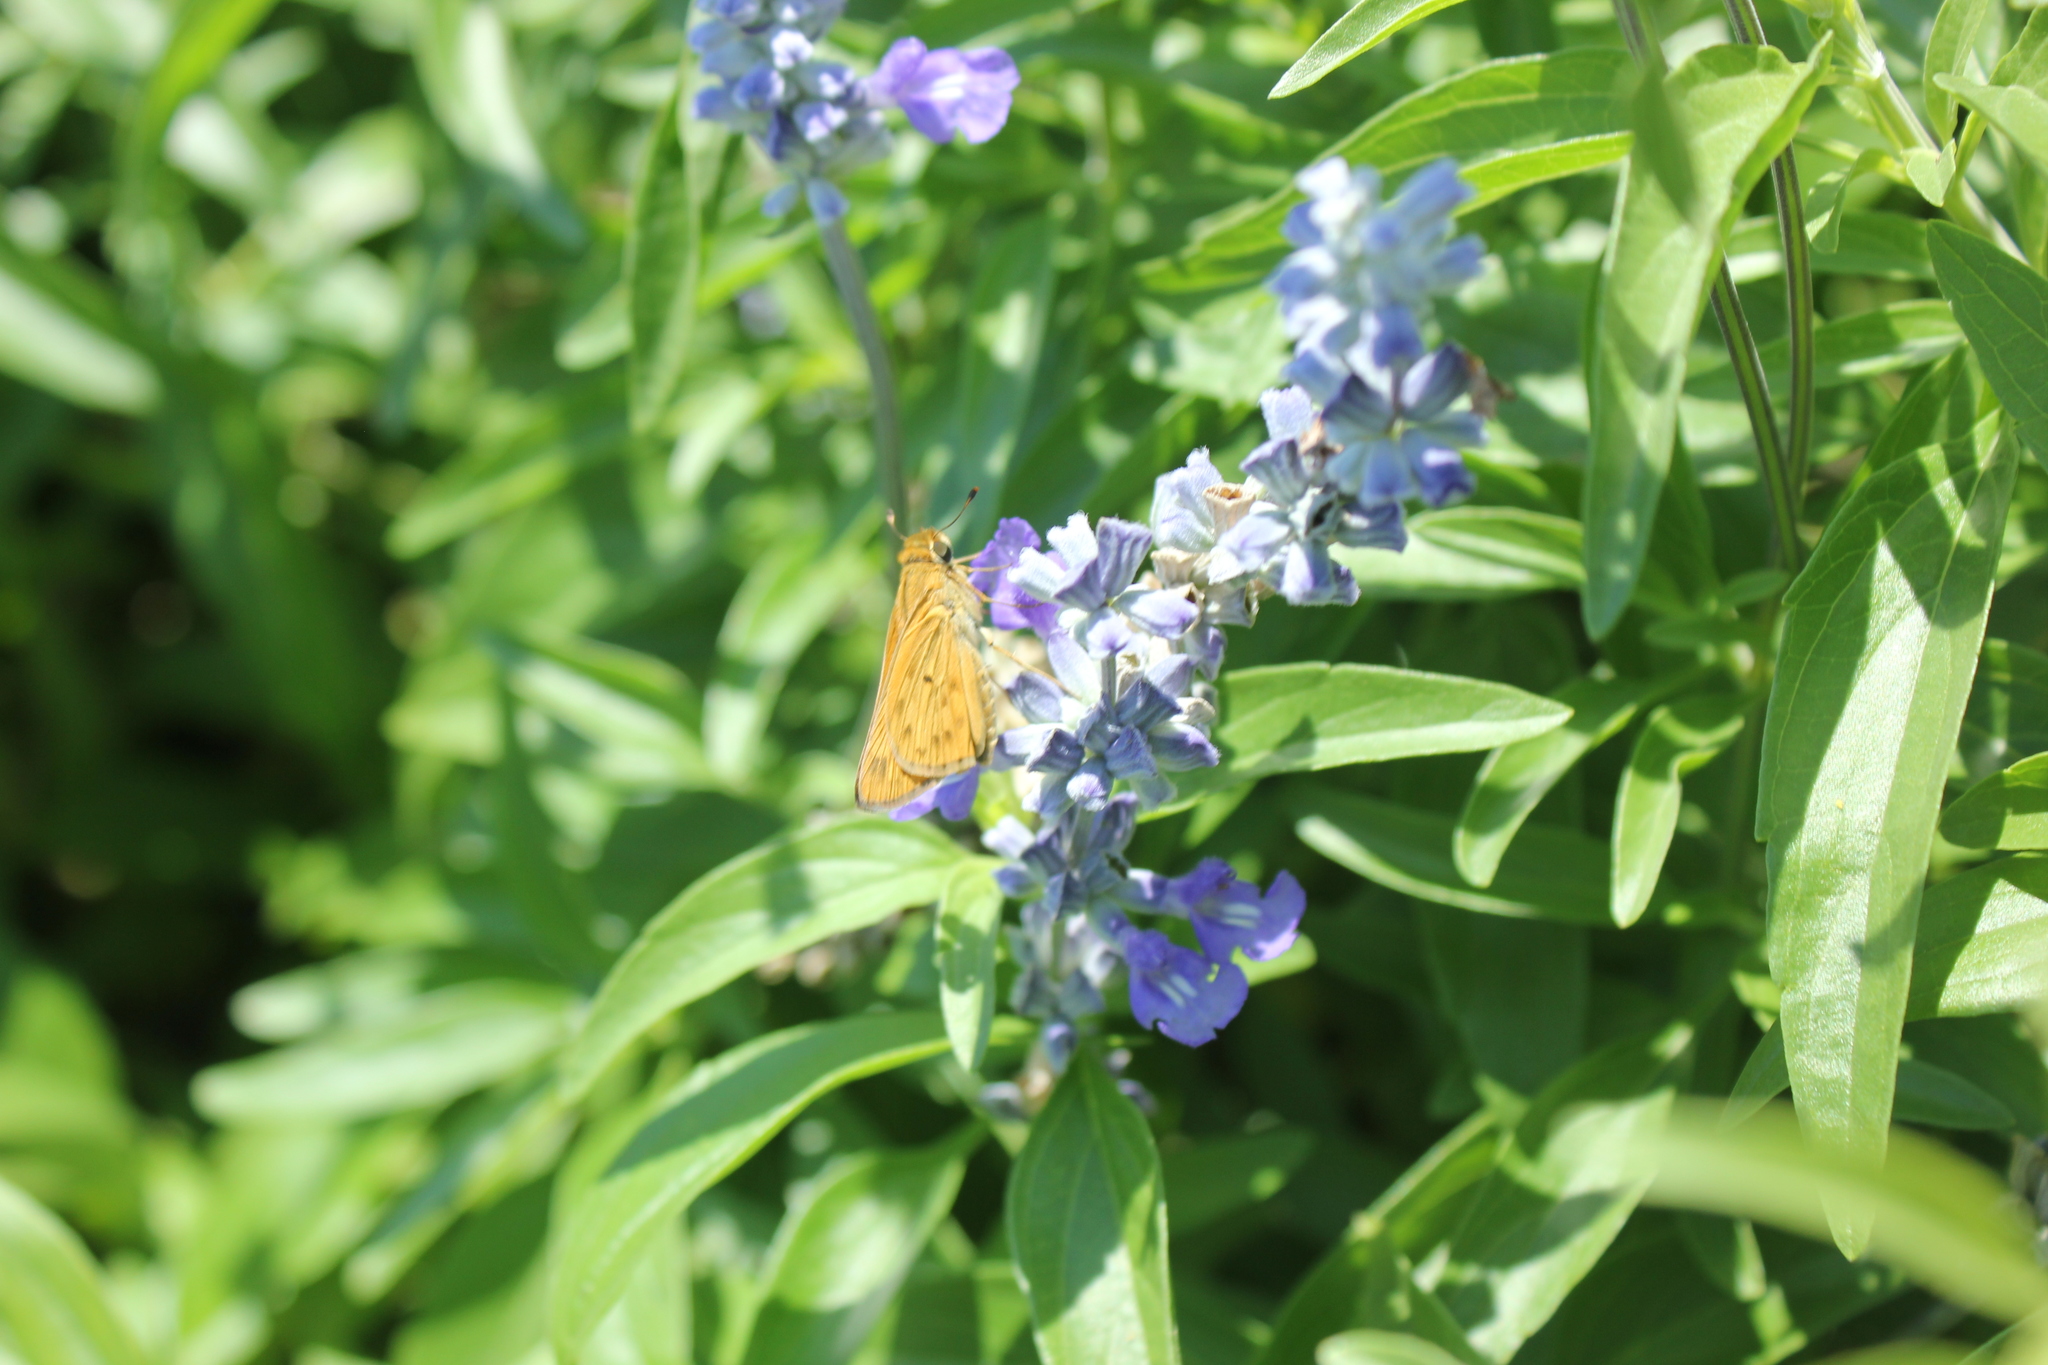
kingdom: Animalia
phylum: Arthropoda
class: Insecta
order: Lepidoptera
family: Hesperiidae
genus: Hylephila
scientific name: Hylephila phyleus
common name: Fiery skipper
